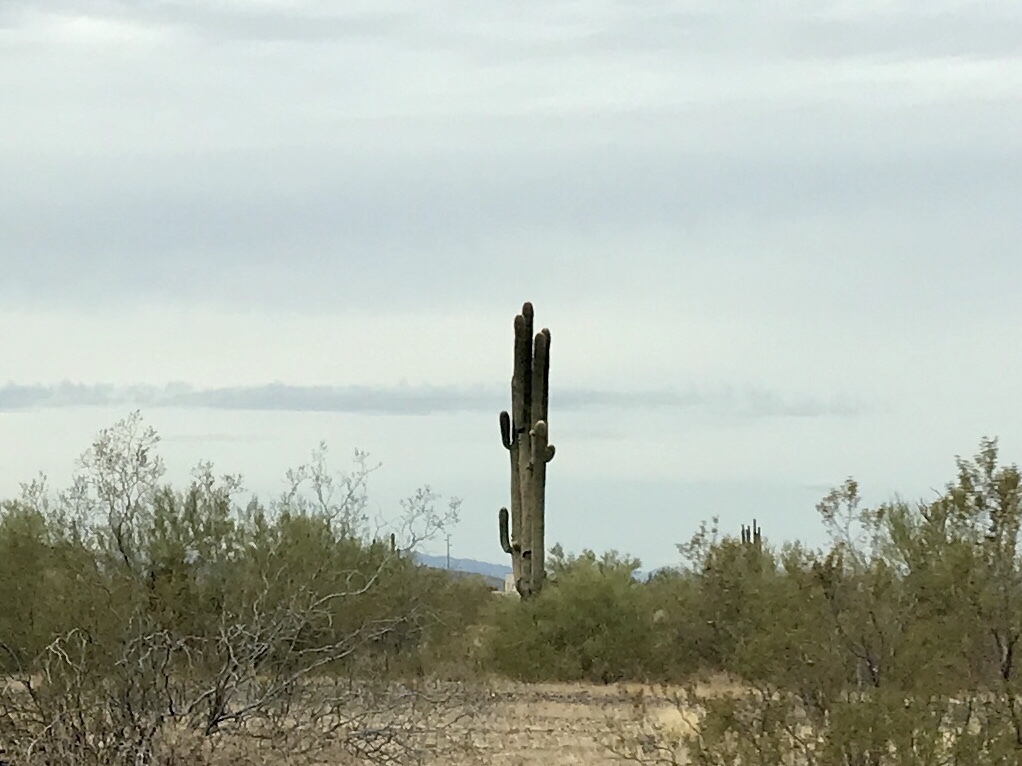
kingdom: Plantae
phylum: Tracheophyta
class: Magnoliopsida
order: Caryophyllales
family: Cactaceae
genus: Carnegiea
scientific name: Carnegiea gigantea
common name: Saguaro
